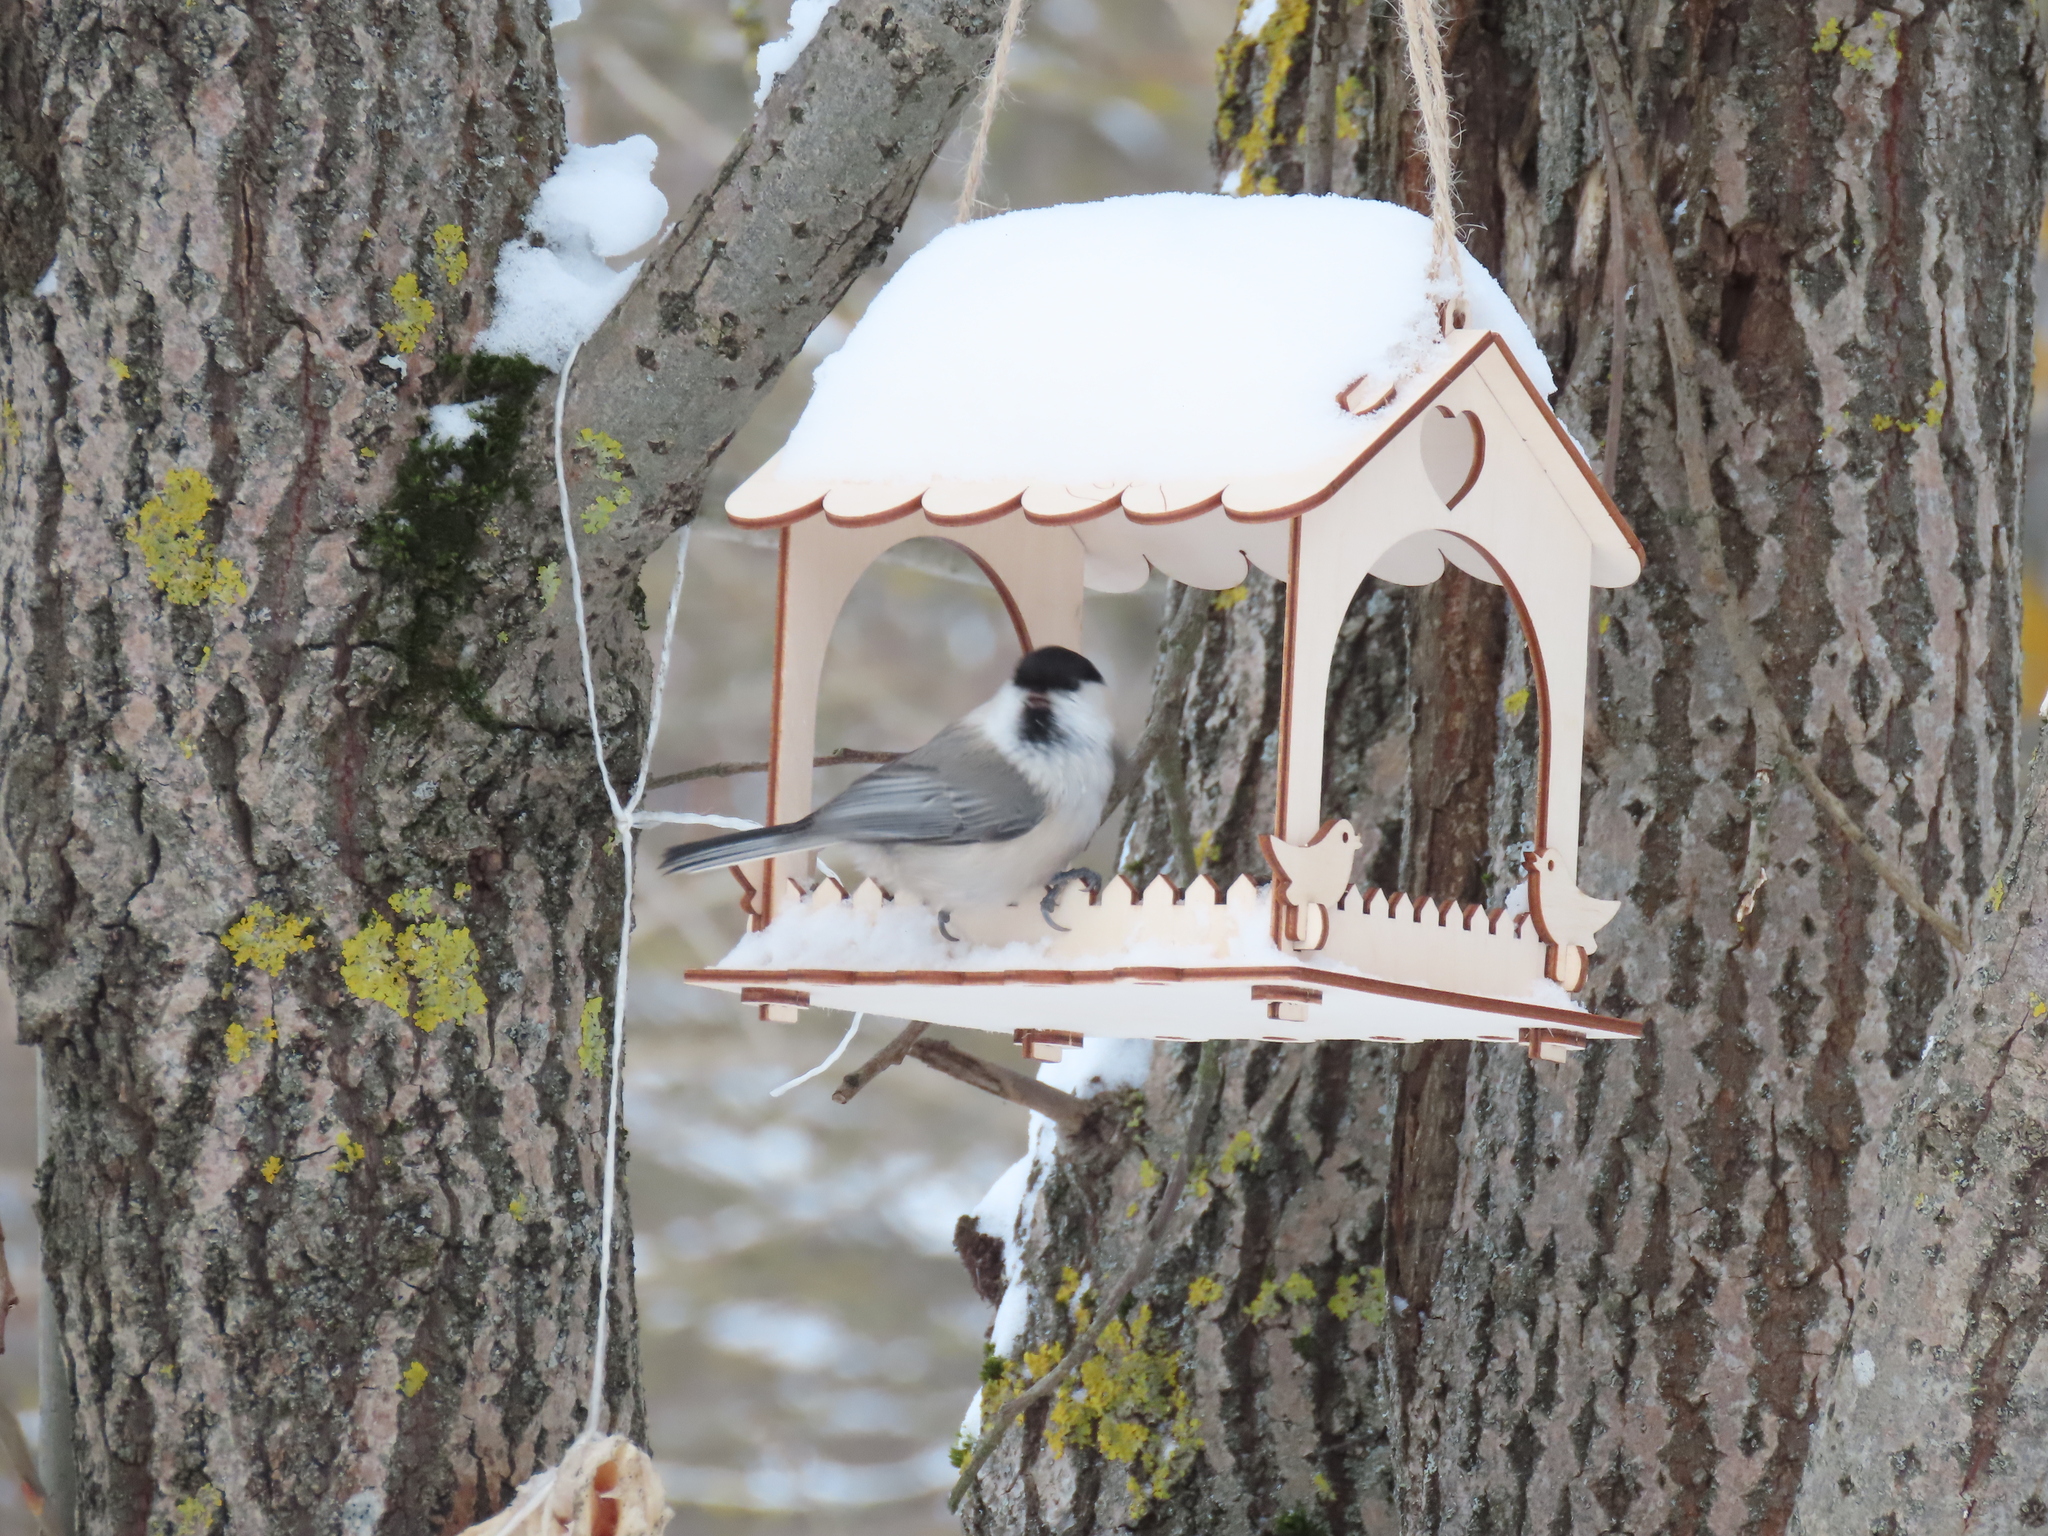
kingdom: Animalia
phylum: Chordata
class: Aves
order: Passeriformes
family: Paridae
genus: Poecile
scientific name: Poecile montanus
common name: Willow tit
